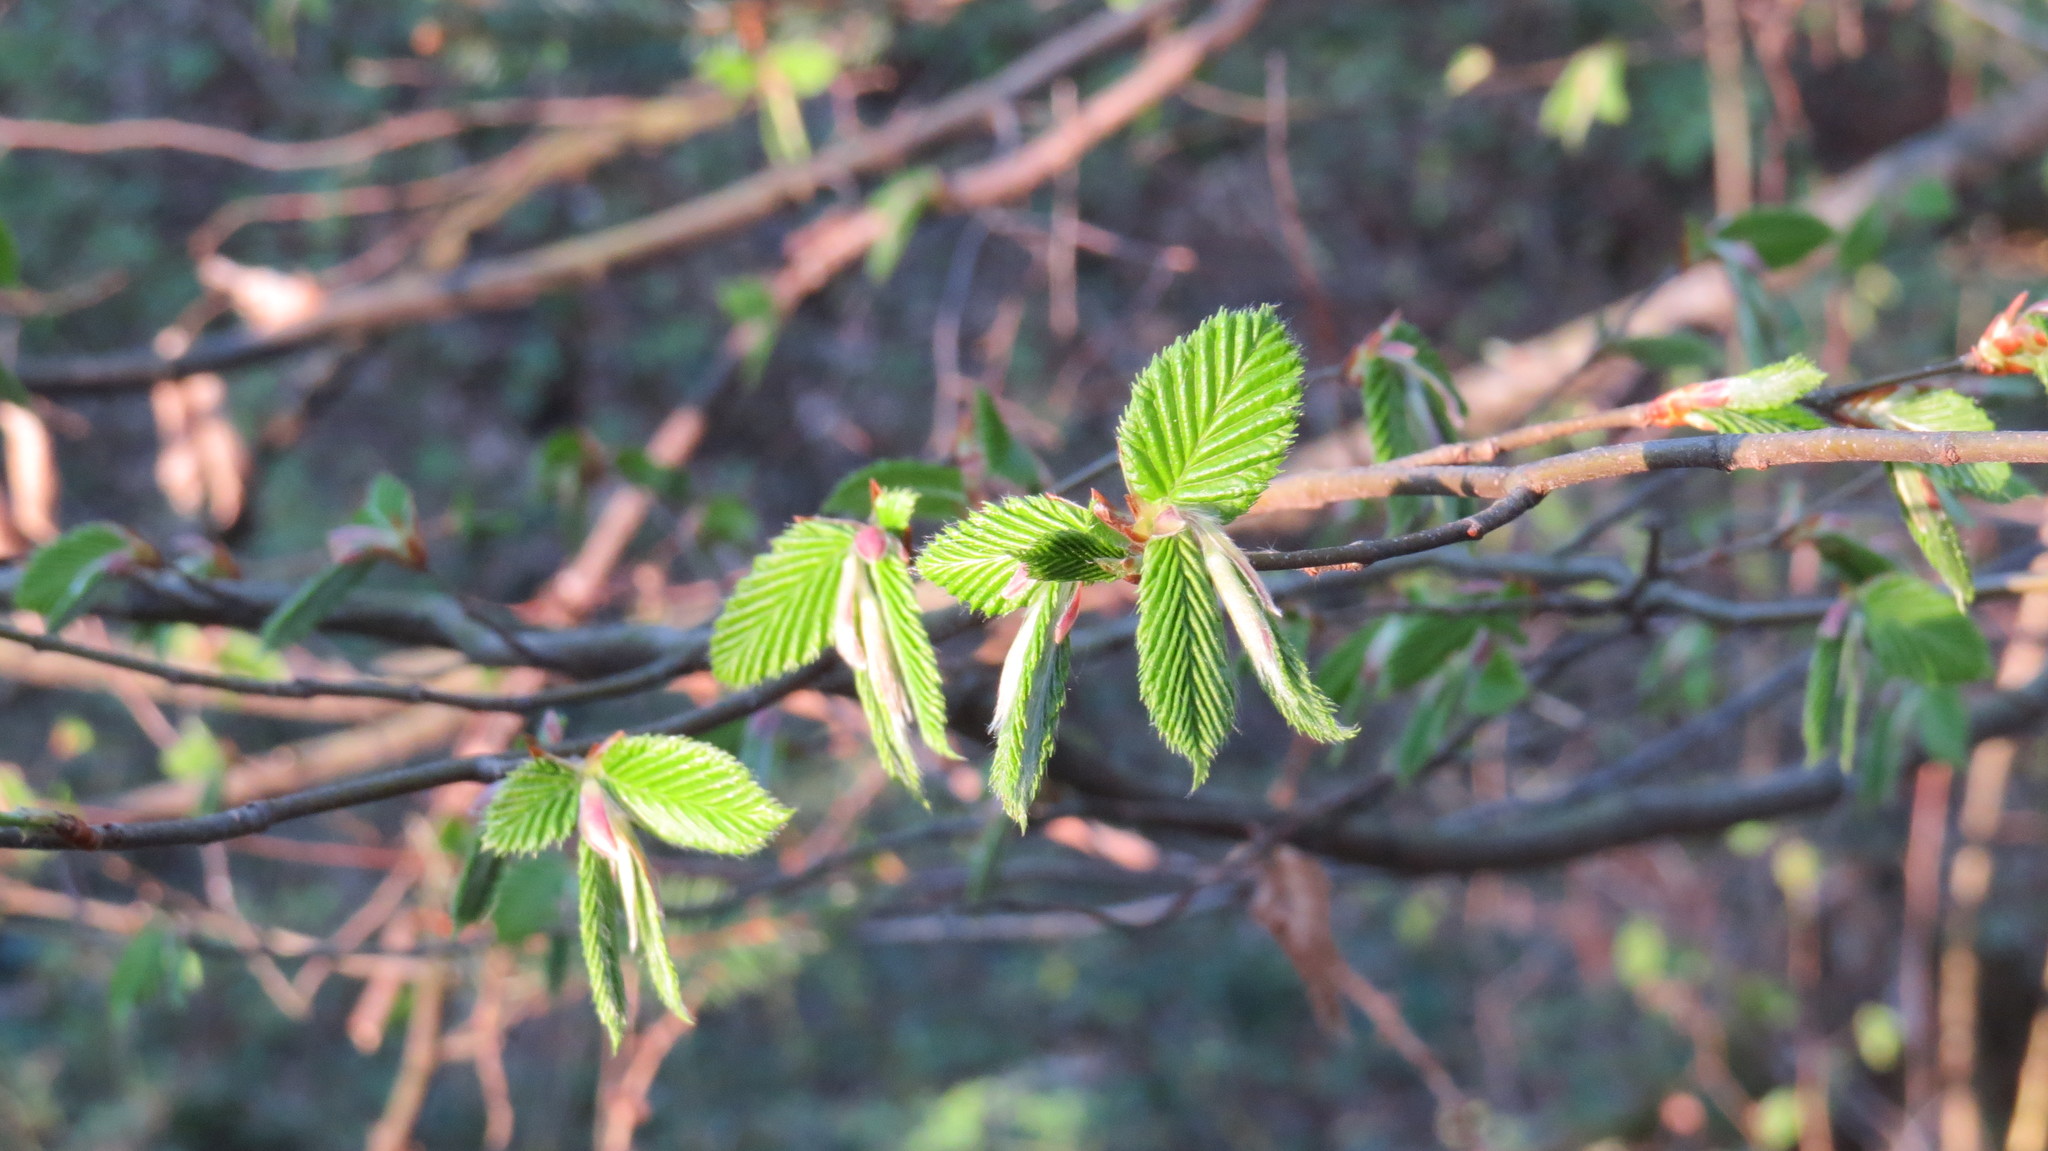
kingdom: Plantae
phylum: Tracheophyta
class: Magnoliopsida
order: Fagales
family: Betulaceae
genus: Carpinus
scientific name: Carpinus betulus
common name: Hornbeam
